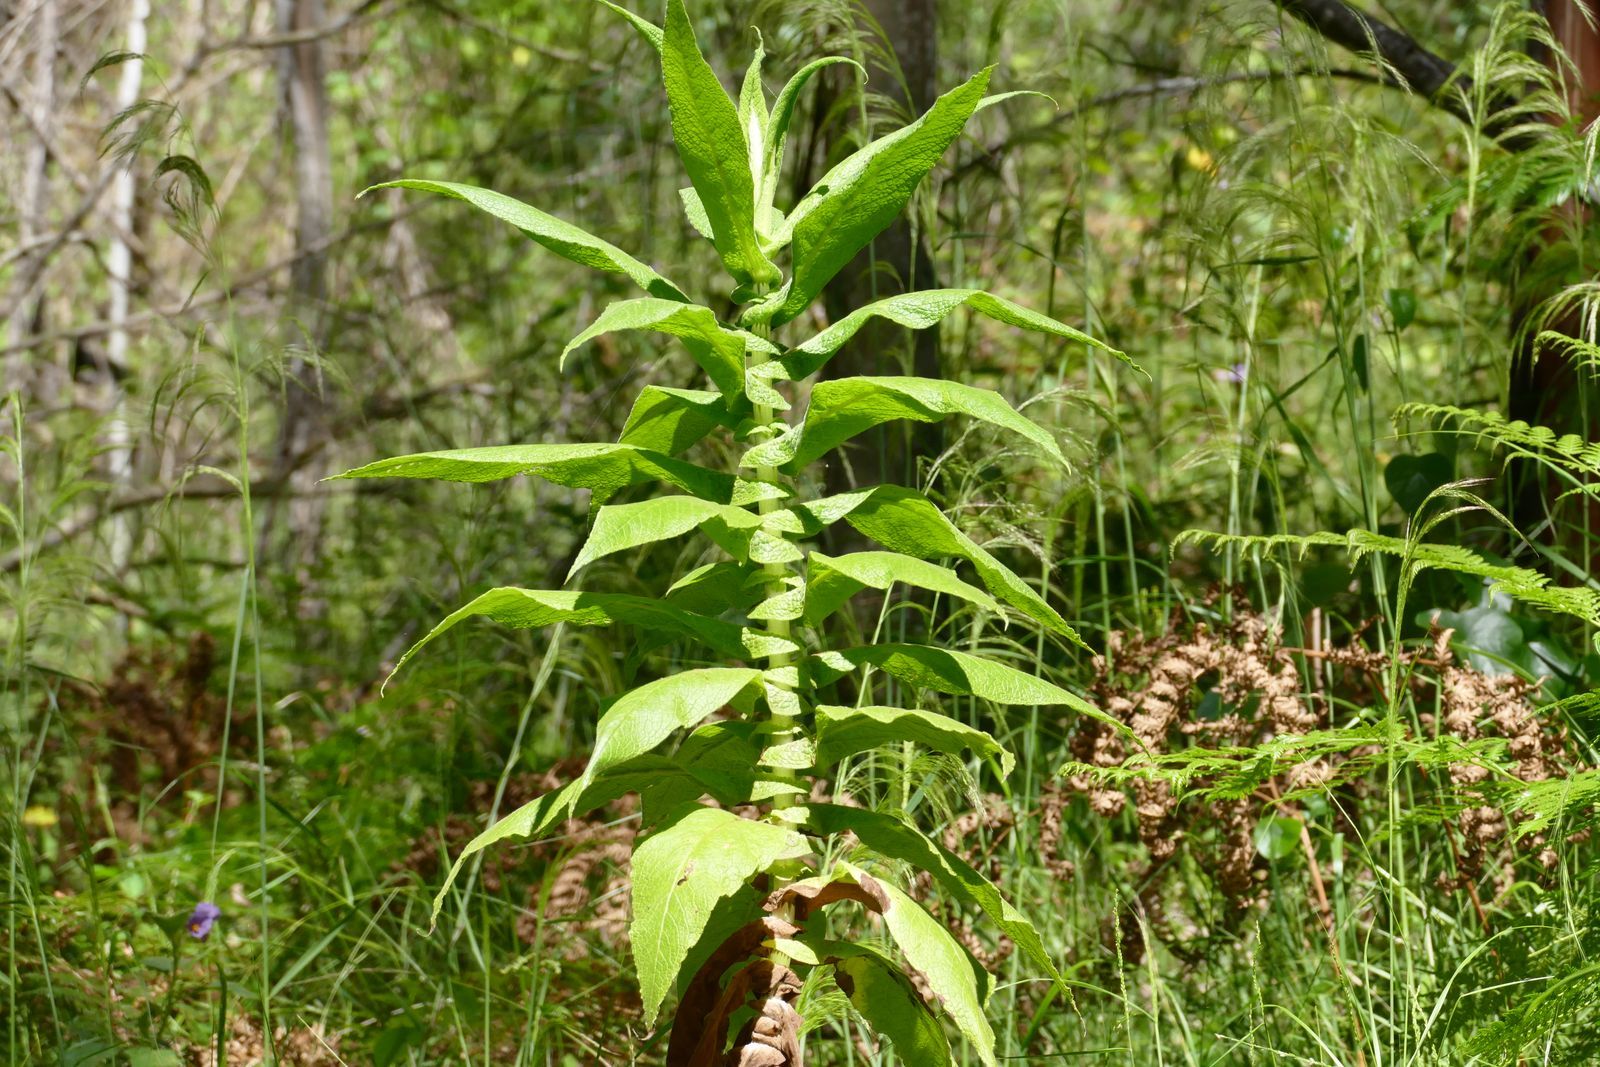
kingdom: Plantae
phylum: Tracheophyta
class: Magnoliopsida
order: Asterales
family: Asteraceae
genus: Calomeria
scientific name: Calomeria amaranthoides
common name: Incenseplant
